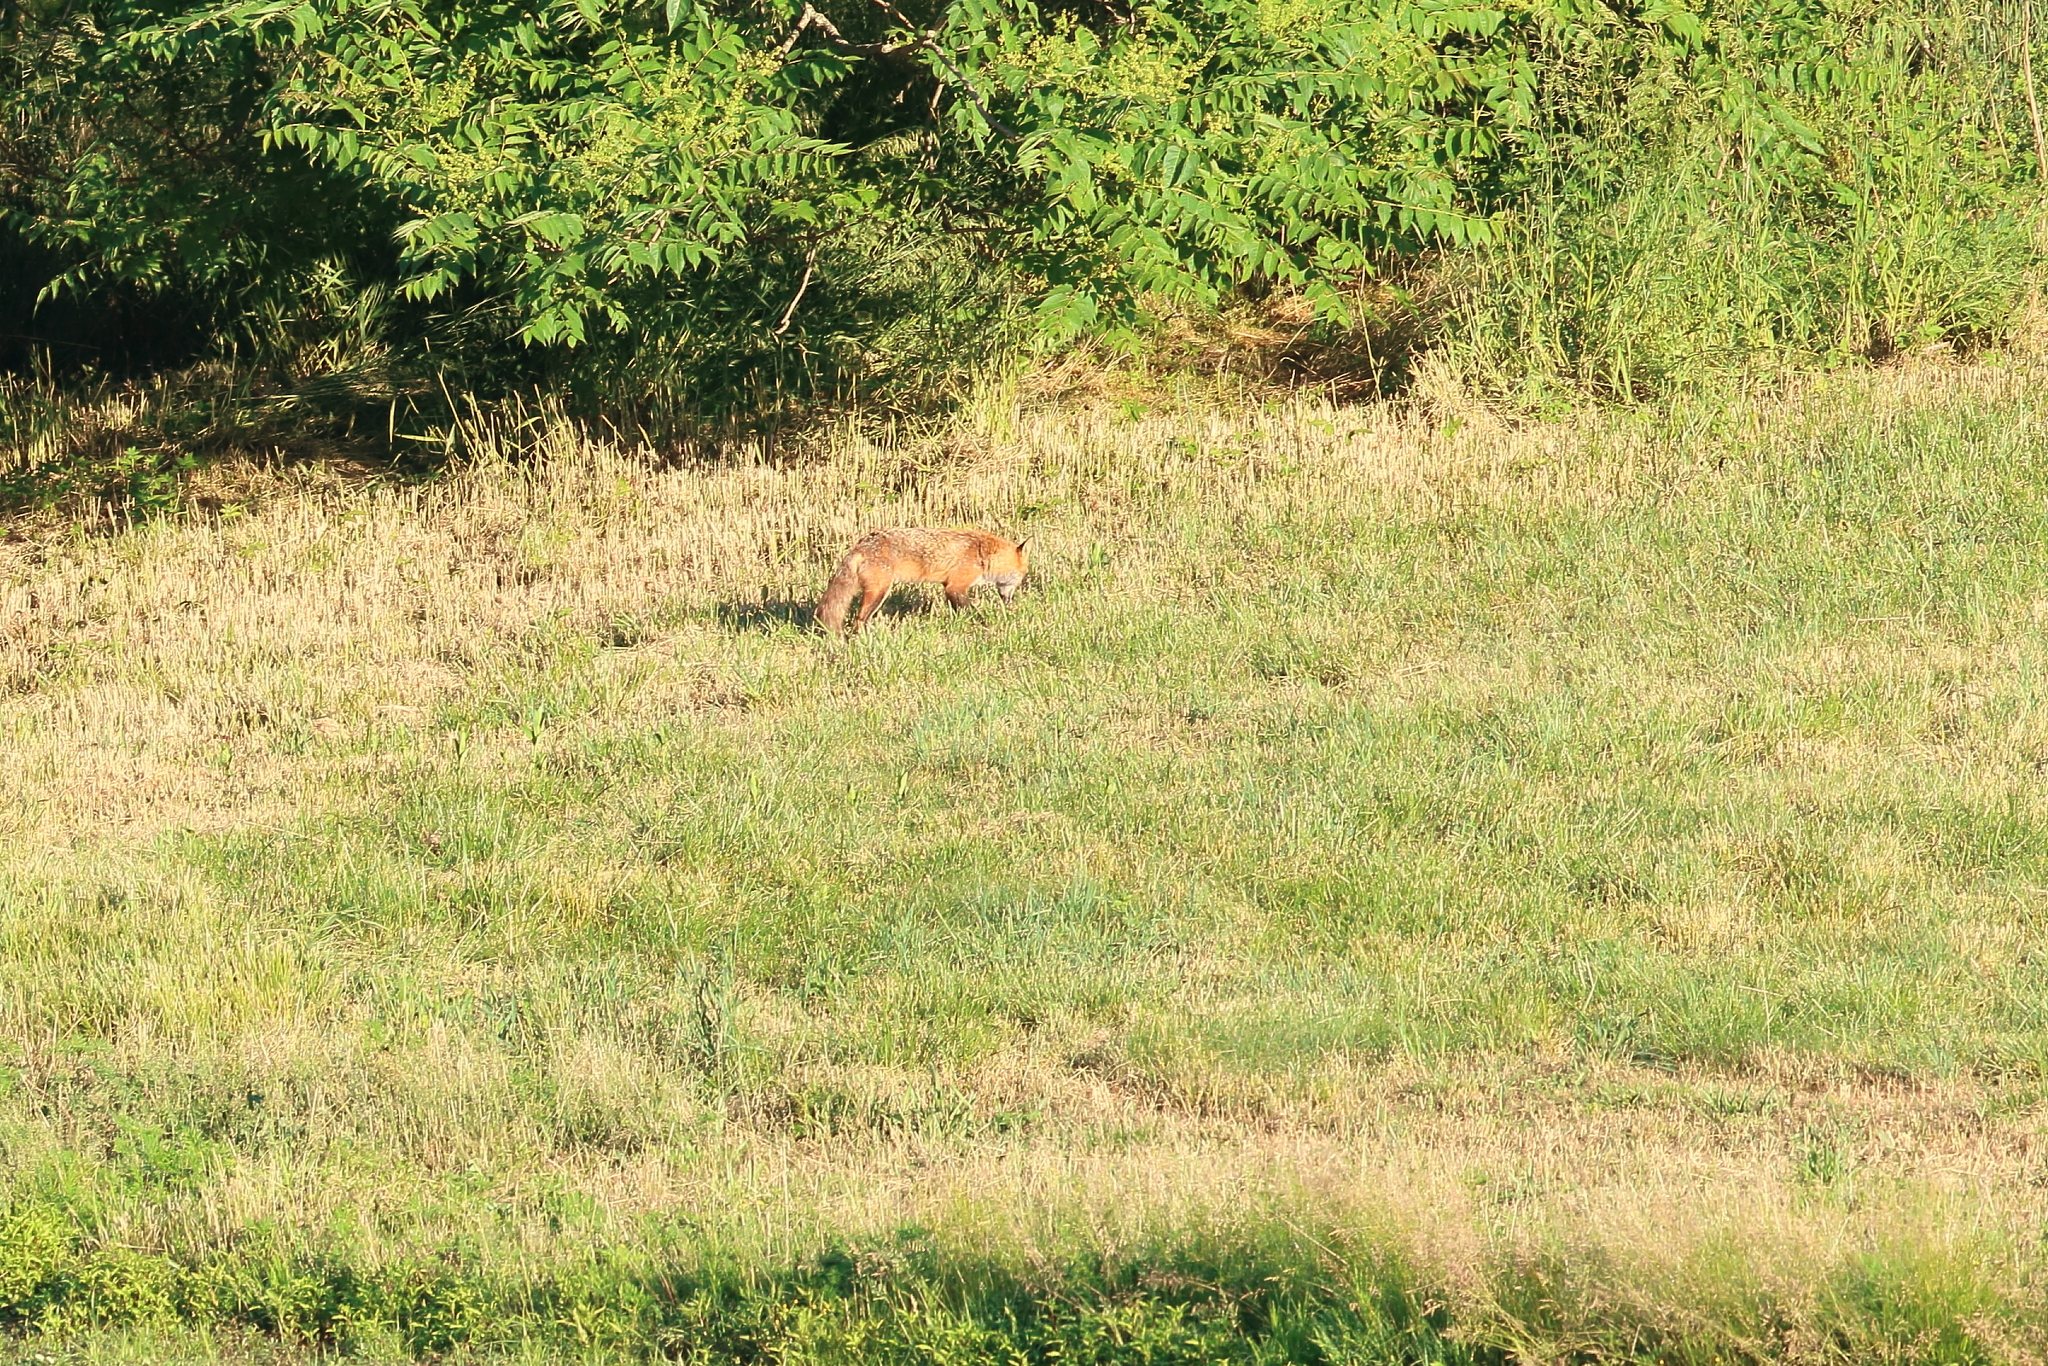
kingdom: Animalia
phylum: Chordata
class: Mammalia
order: Carnivora
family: Canidae
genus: Vulpes
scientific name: Vulpes vulpes
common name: Red fox
